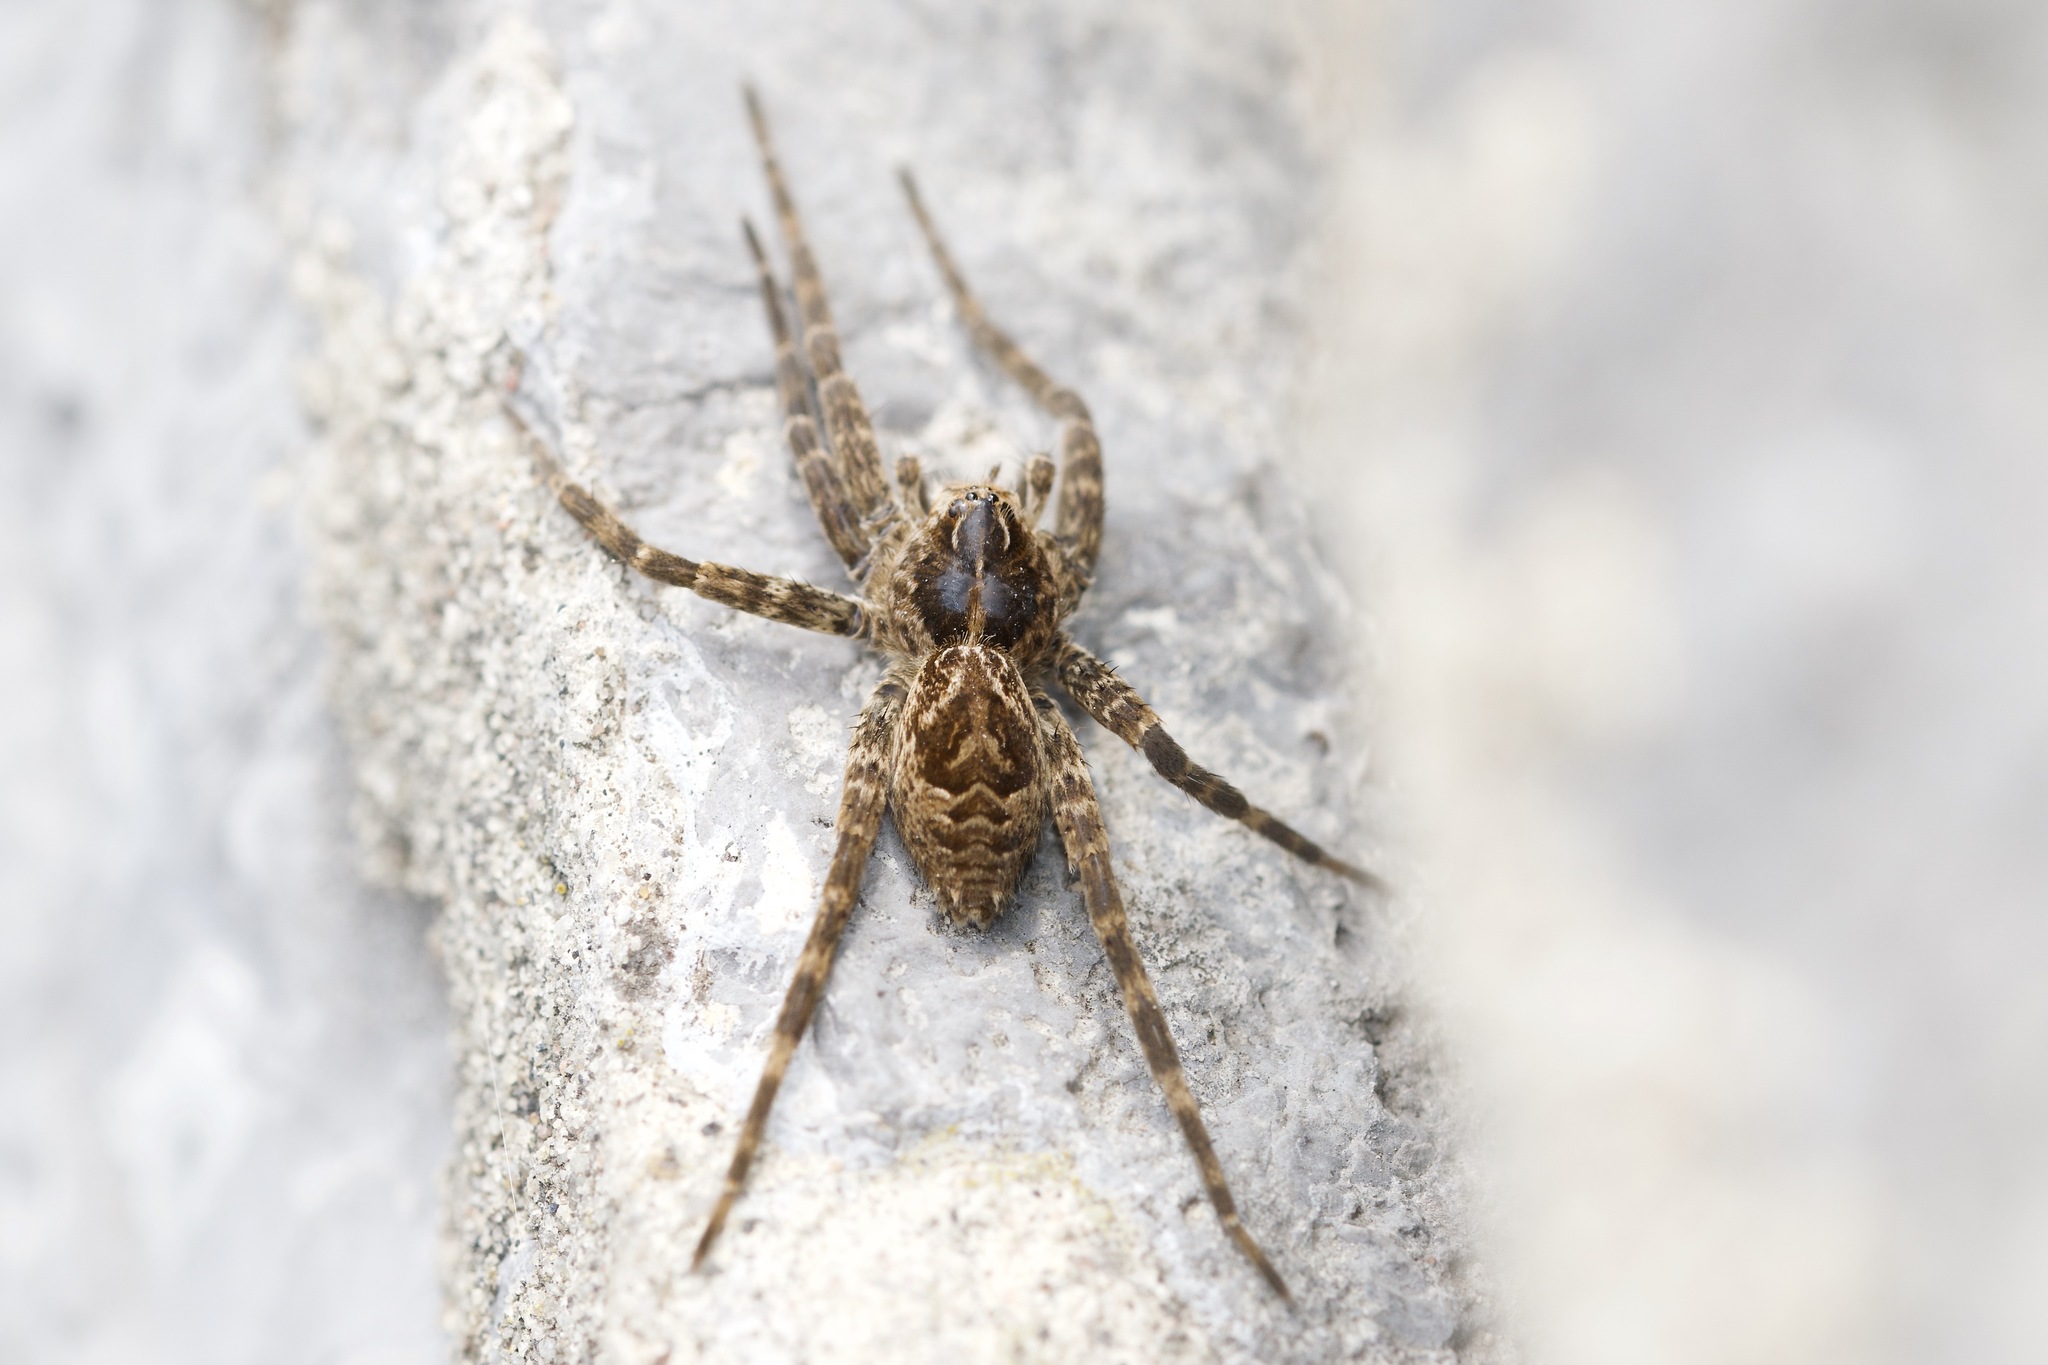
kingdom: Animalia
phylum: Arthropoda
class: Arachnida
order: Araneae
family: Pisauridae
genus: Dolomedes
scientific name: Dolomedes scriptus
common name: Striped fishing spider
